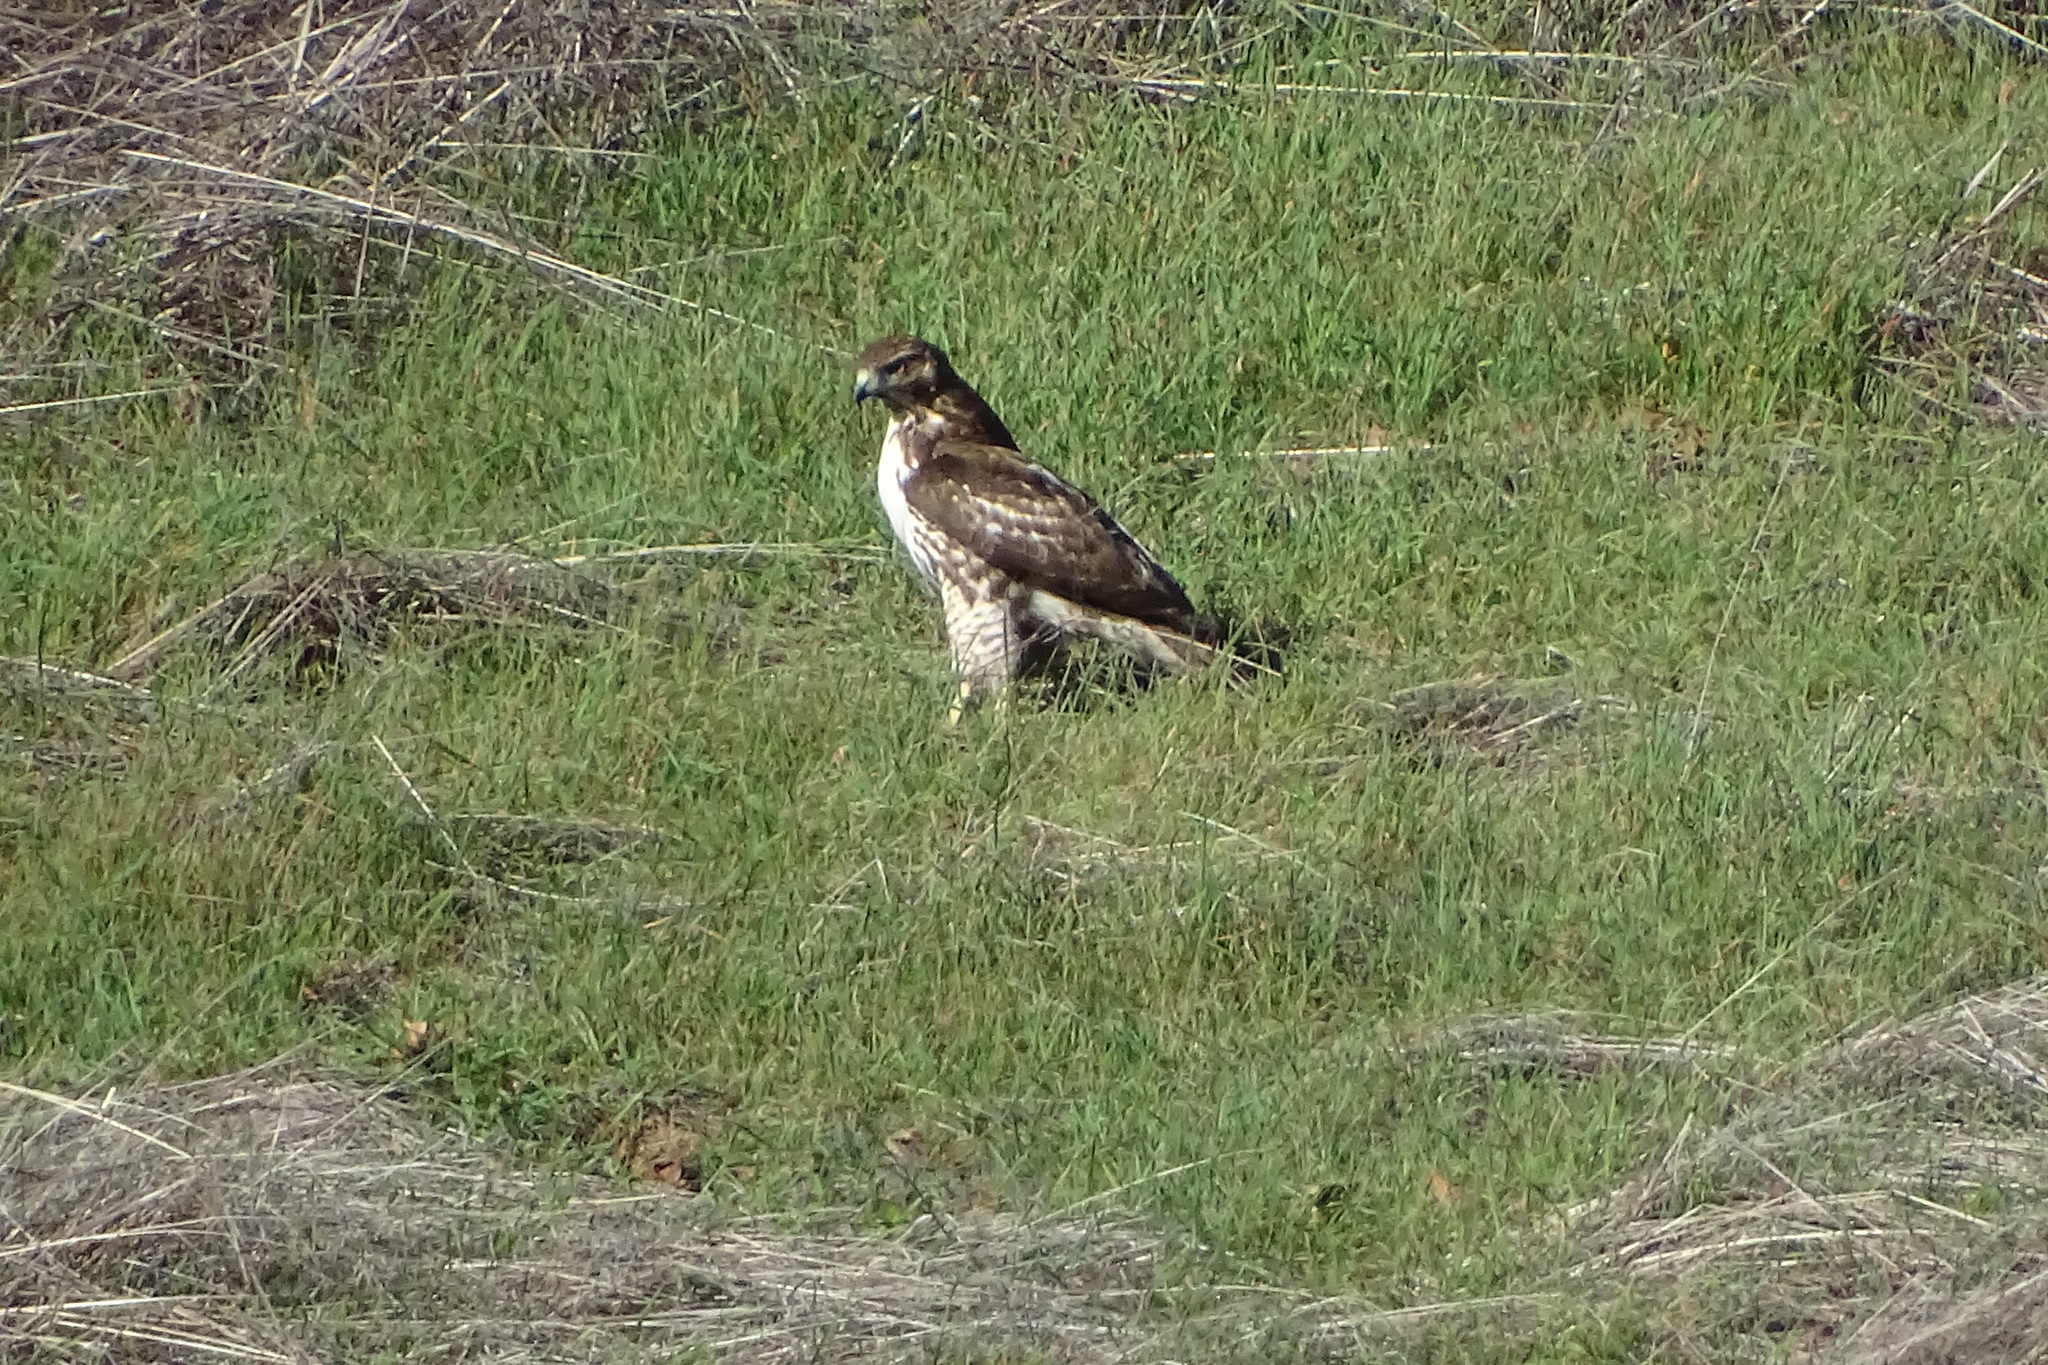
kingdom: Animalia
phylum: Chordata
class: Aves
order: Accipitriformes
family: Accipitridae
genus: Buteo
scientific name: Buteo jamaicensis
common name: Red-tailed hawk
